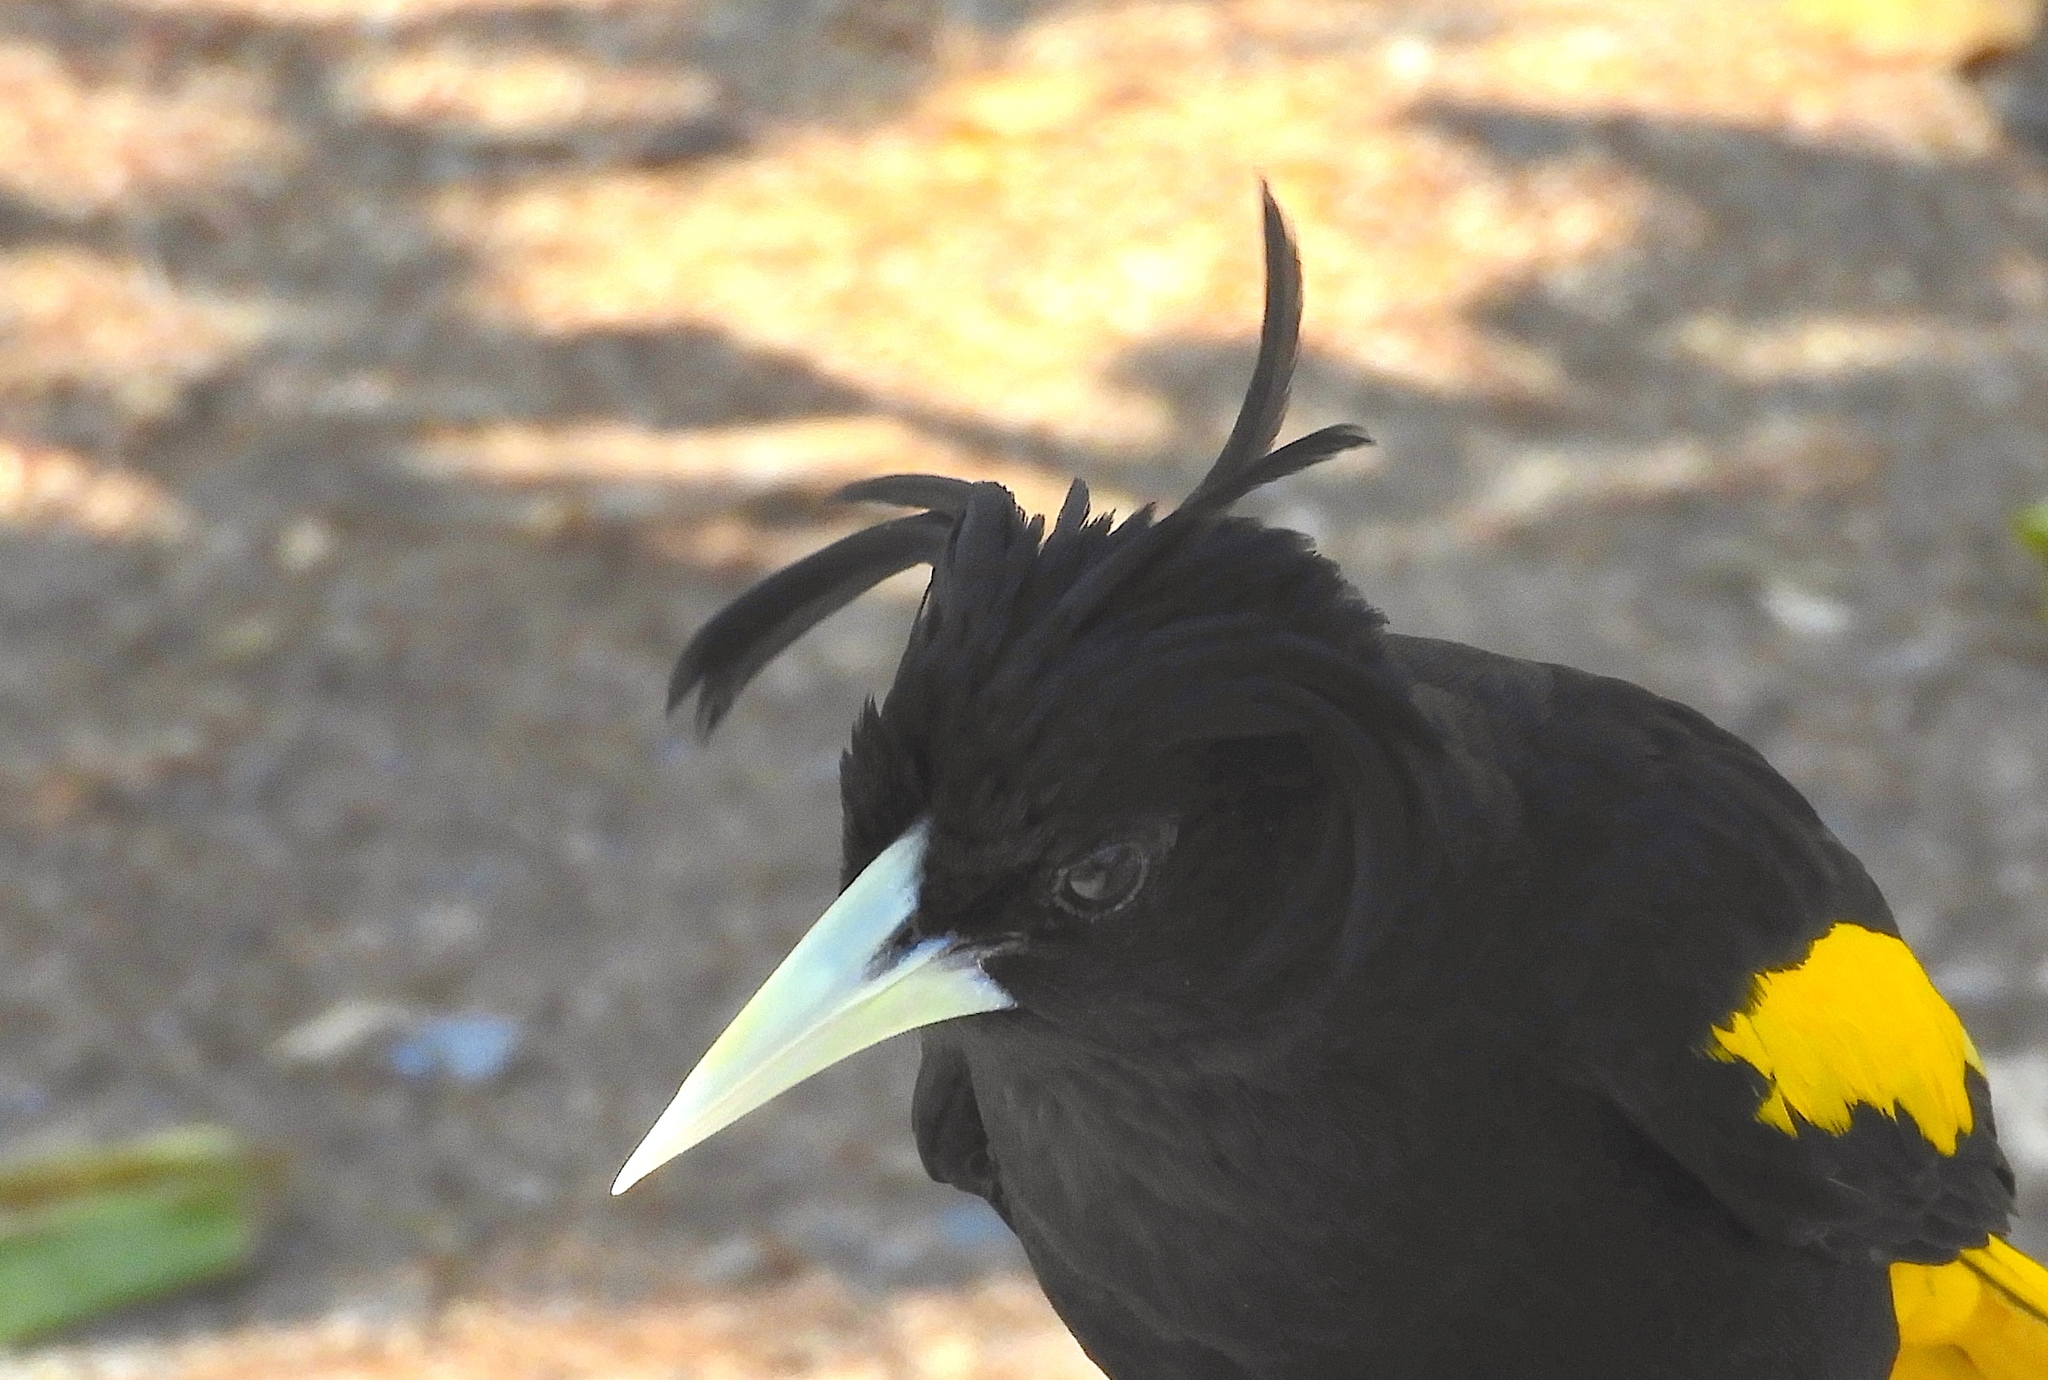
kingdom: Animalia
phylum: Chordata
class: Aves
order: Passeriformes
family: Icteridae
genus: Cacicus
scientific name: Cacicus melanicterus
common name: Yellow-winged cacique
